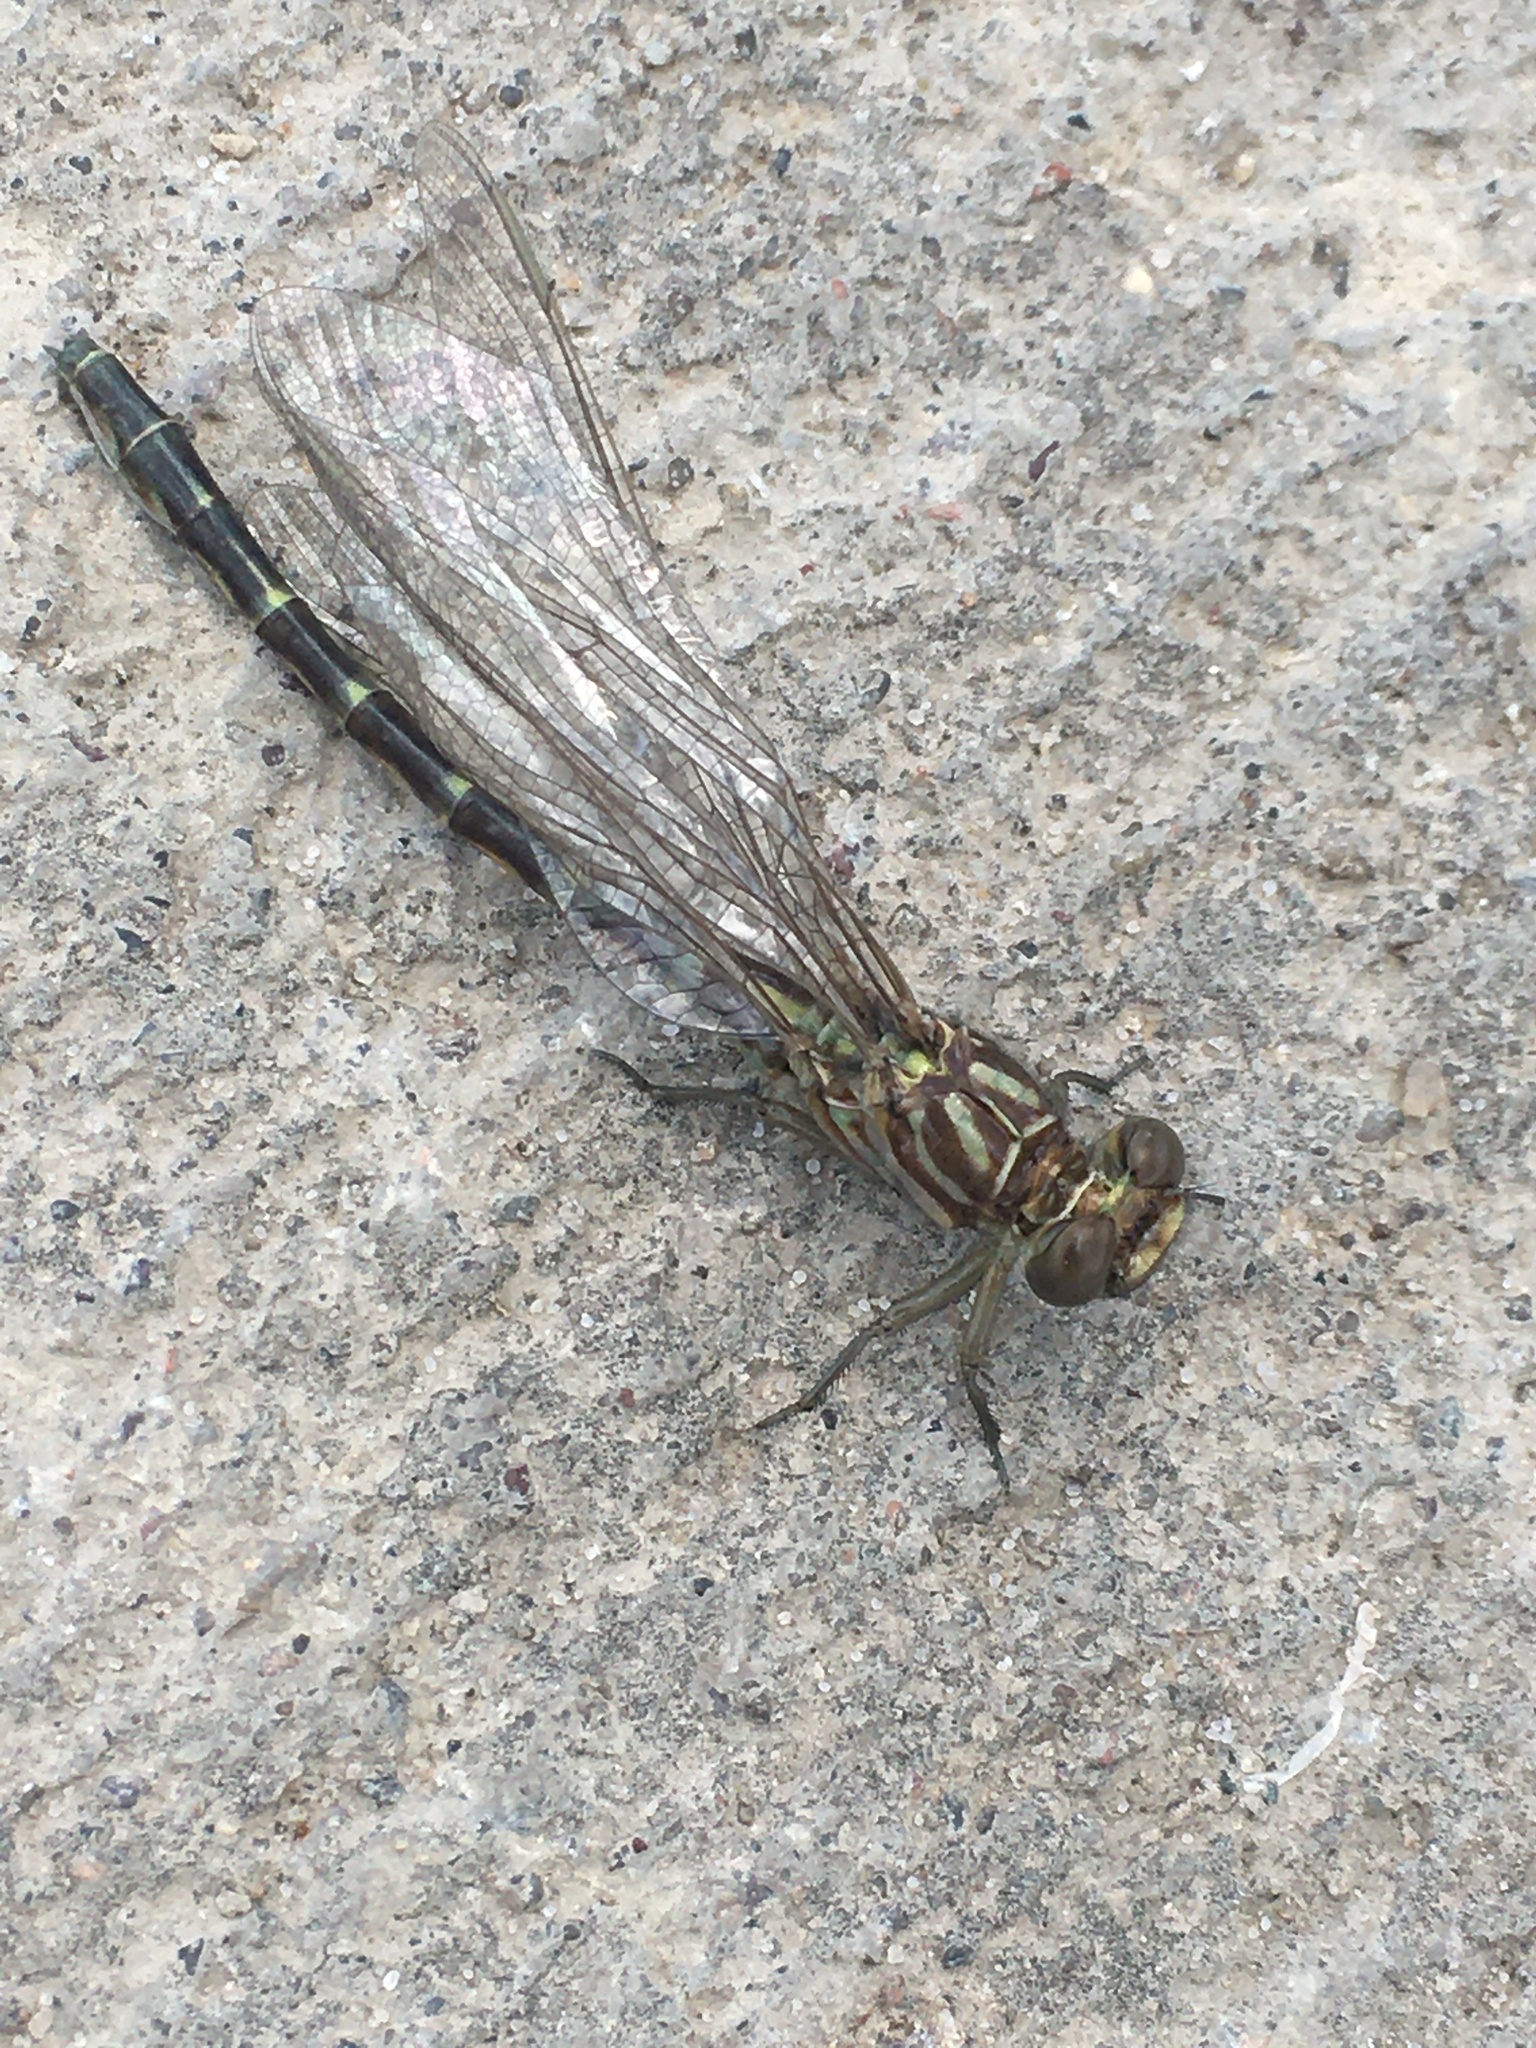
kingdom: Animalia
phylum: Arthropoda
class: Insecta
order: Odonata
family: Gomphidae
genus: Stylurus
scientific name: Stylurus notatus
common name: Elusive clubtail
